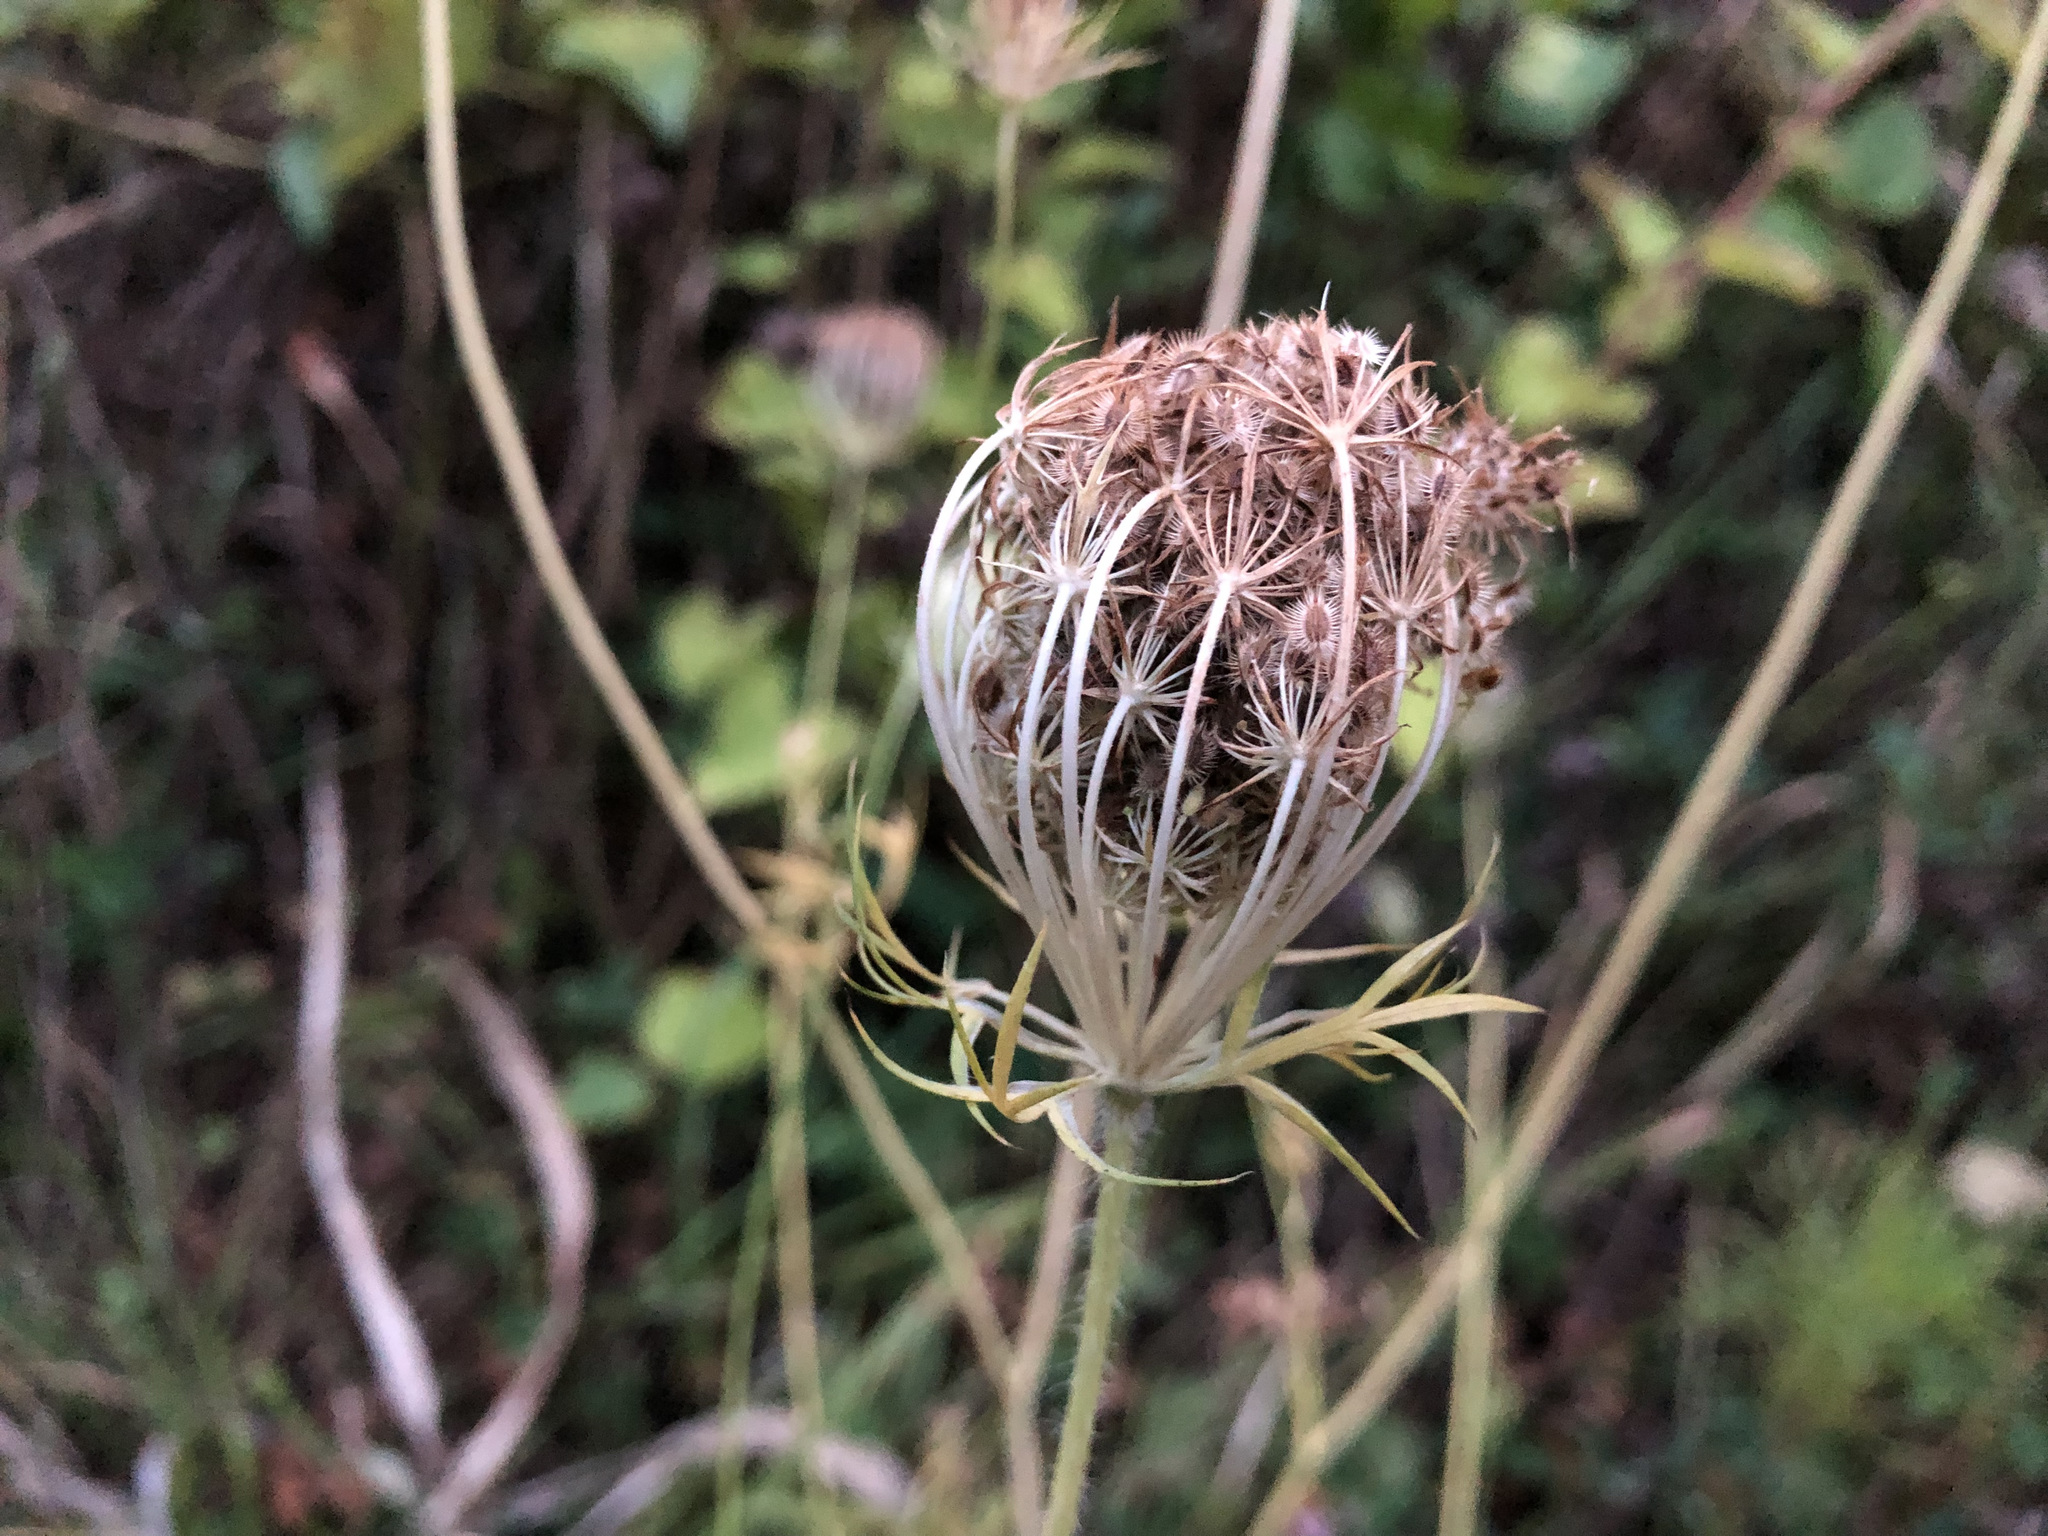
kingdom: Plantae
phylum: Tracheophyta
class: Magnoliopsida
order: Apiales
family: Apiaceae
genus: Daucus
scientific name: Daucus carota
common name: Wild carrot
